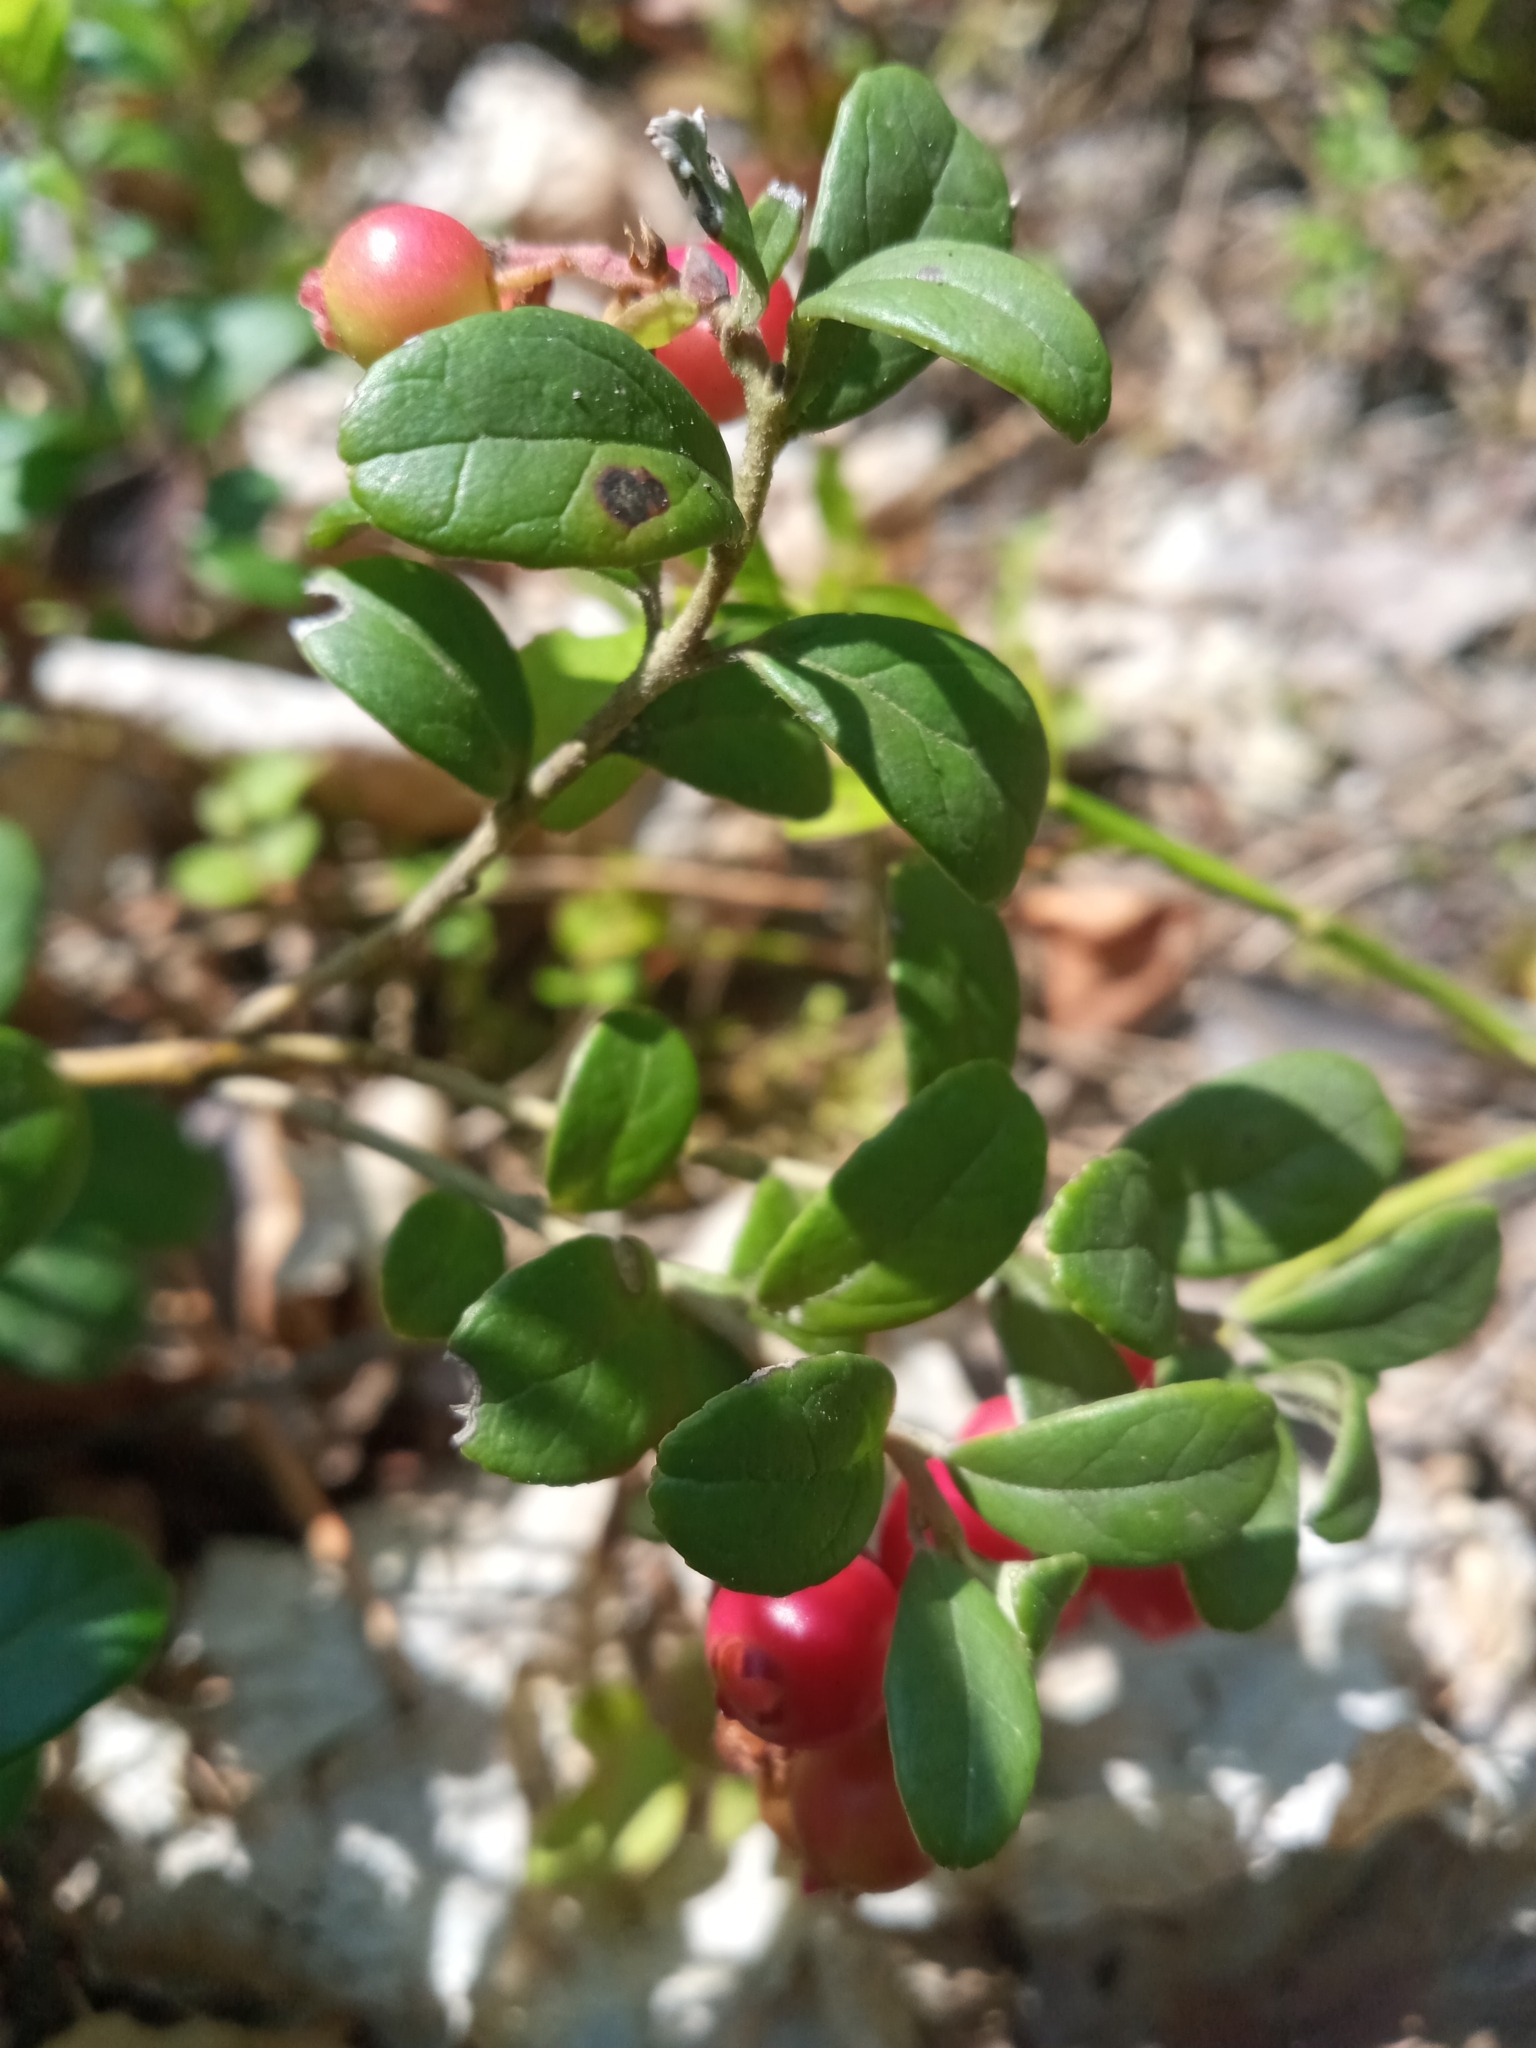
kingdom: Plantae
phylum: Tracheophyta
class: Magnoliopsida
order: Ericales
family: Ericaceae
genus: Vaccinium
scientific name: Vaccinium vitis-idaea
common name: Cowberry
